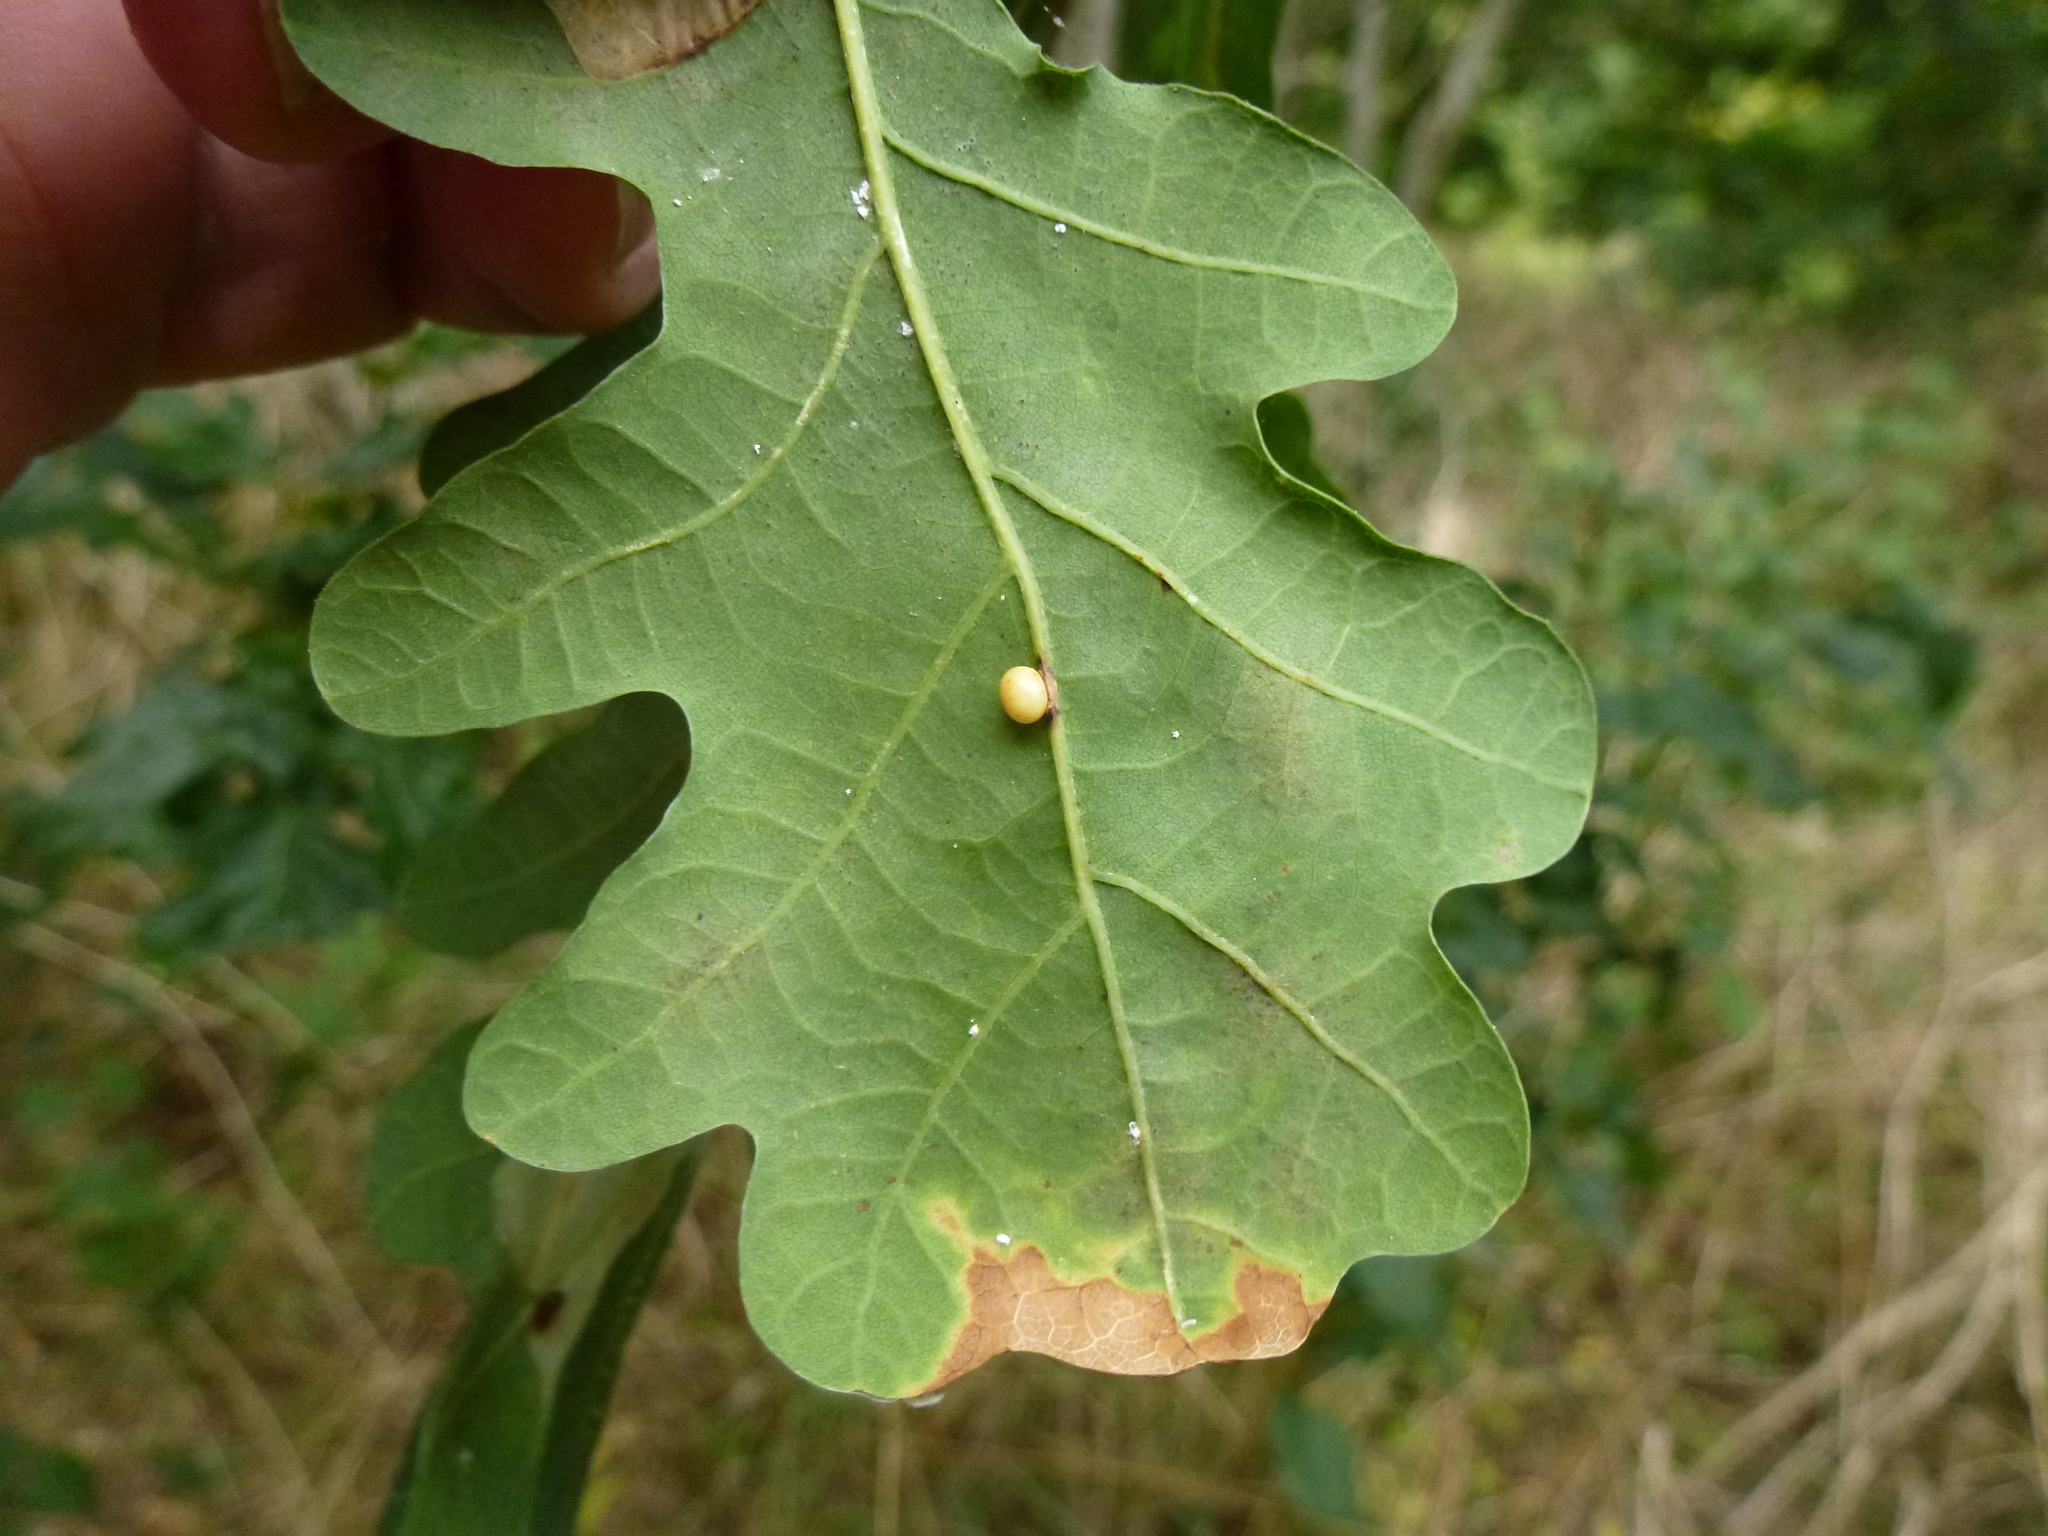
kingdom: Animalia
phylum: Arthropoda
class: Insecta
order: Hymenoptera
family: Cynipidae
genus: Neuroterus
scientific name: Neuroterus anthracinus
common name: Oyster gall
